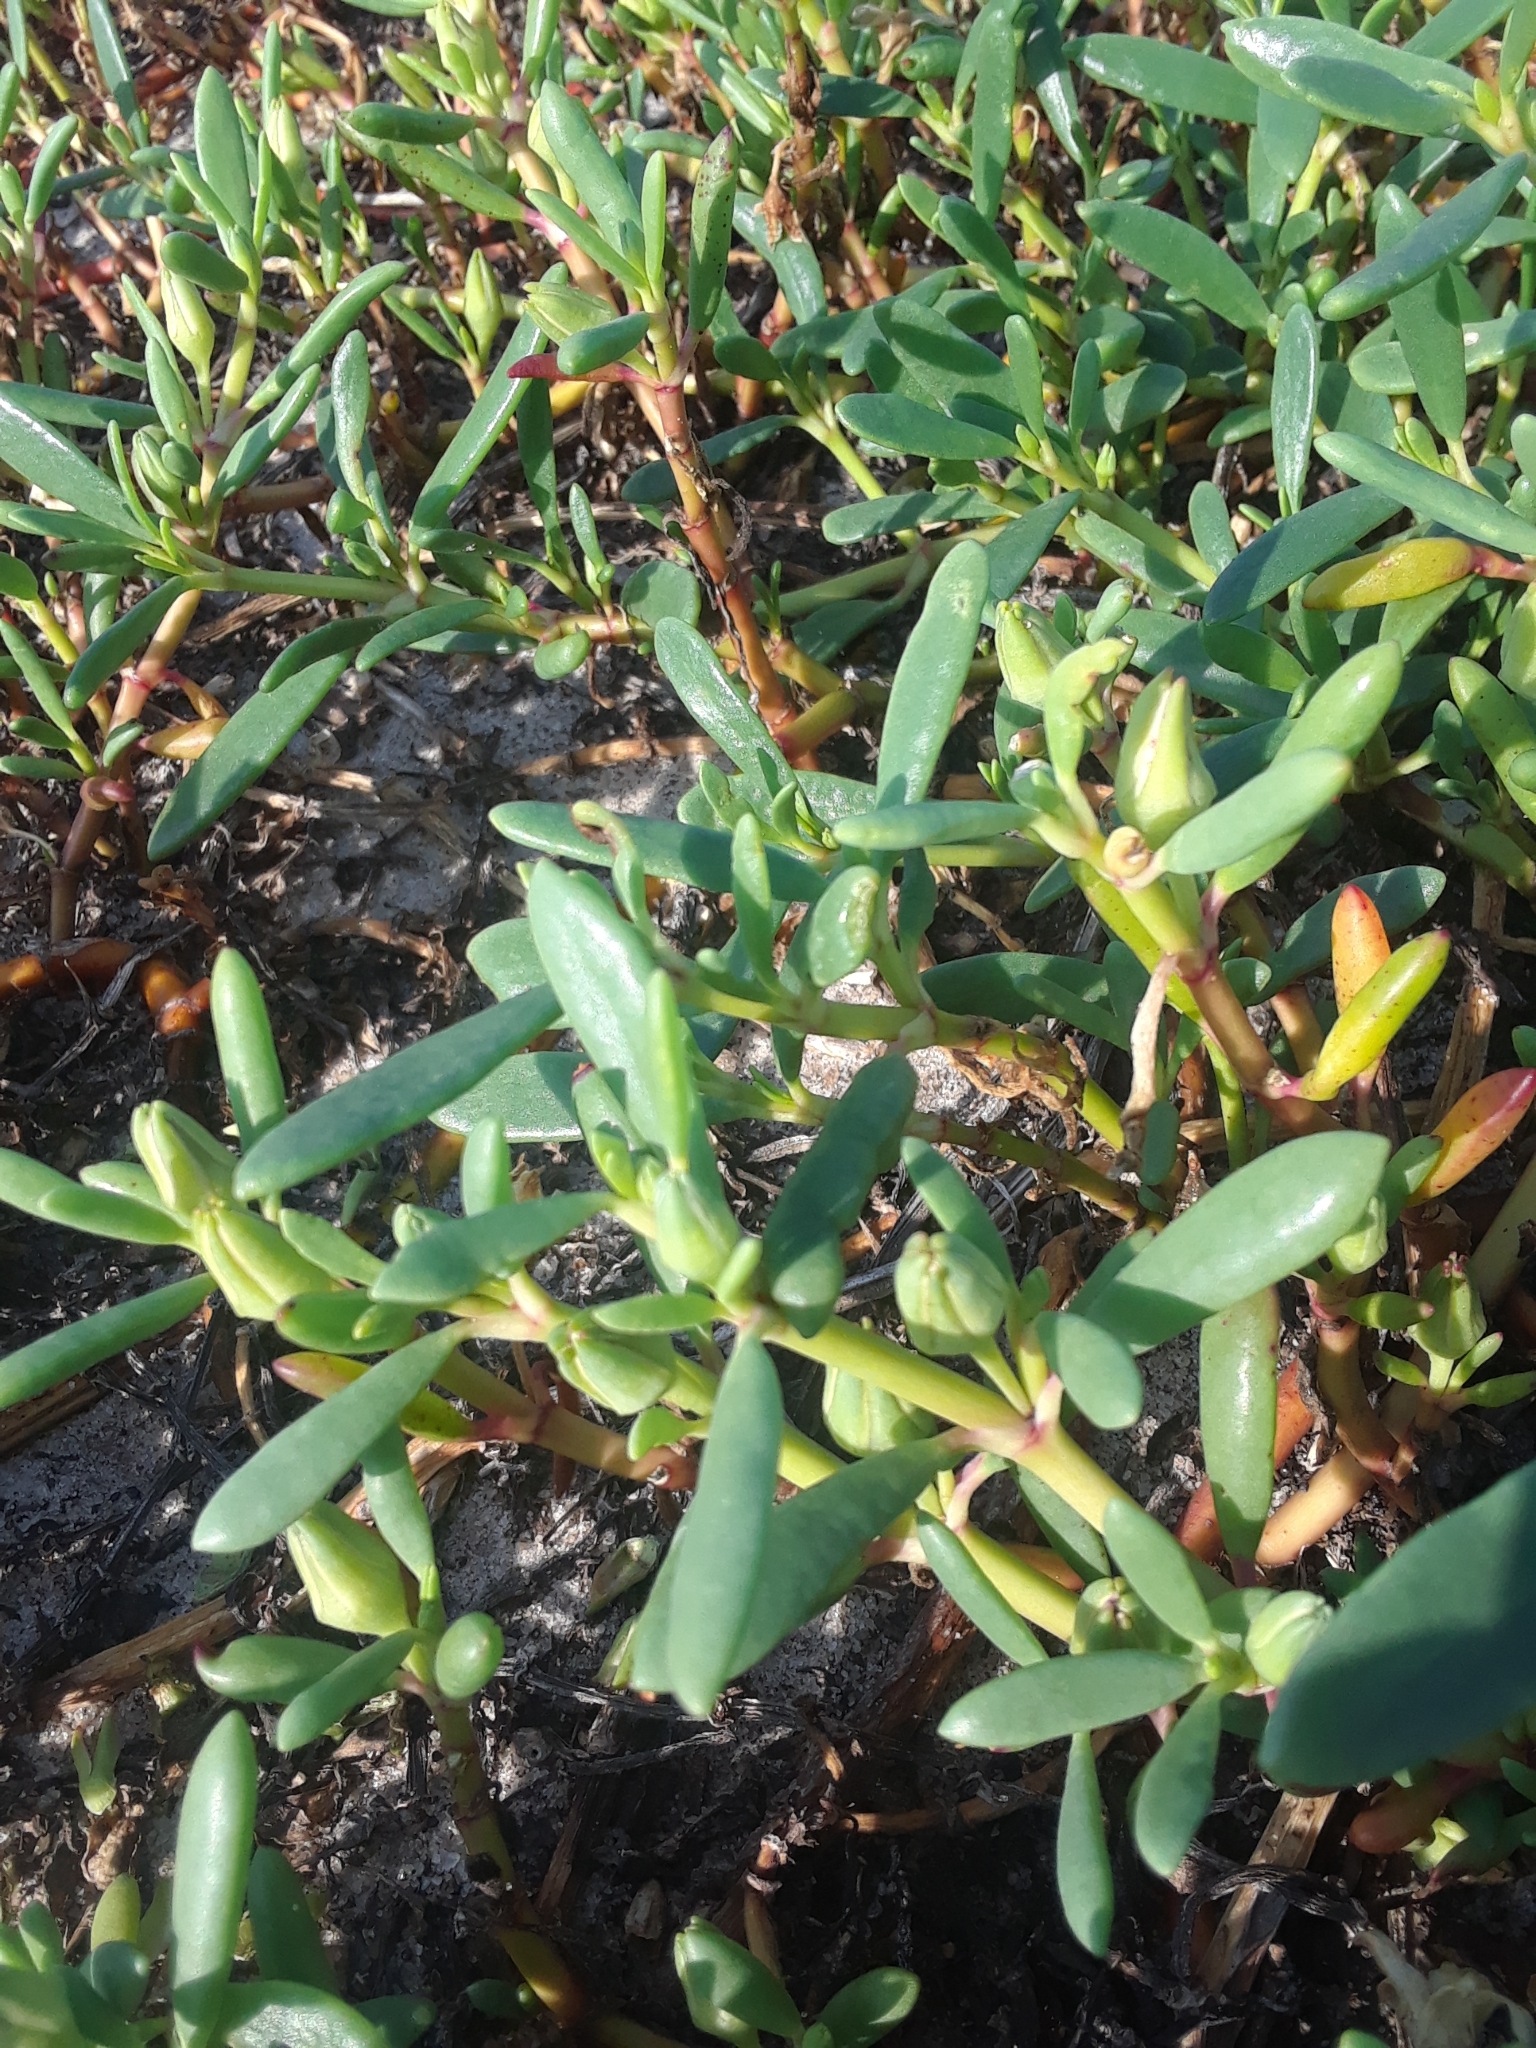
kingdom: Plantae
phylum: Tracheophyta
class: Magnoliopsida
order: Caryophyllales
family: Aizoaceae
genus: Sesuvium
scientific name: Sesuvium portulacastrum
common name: Sea-purslane
